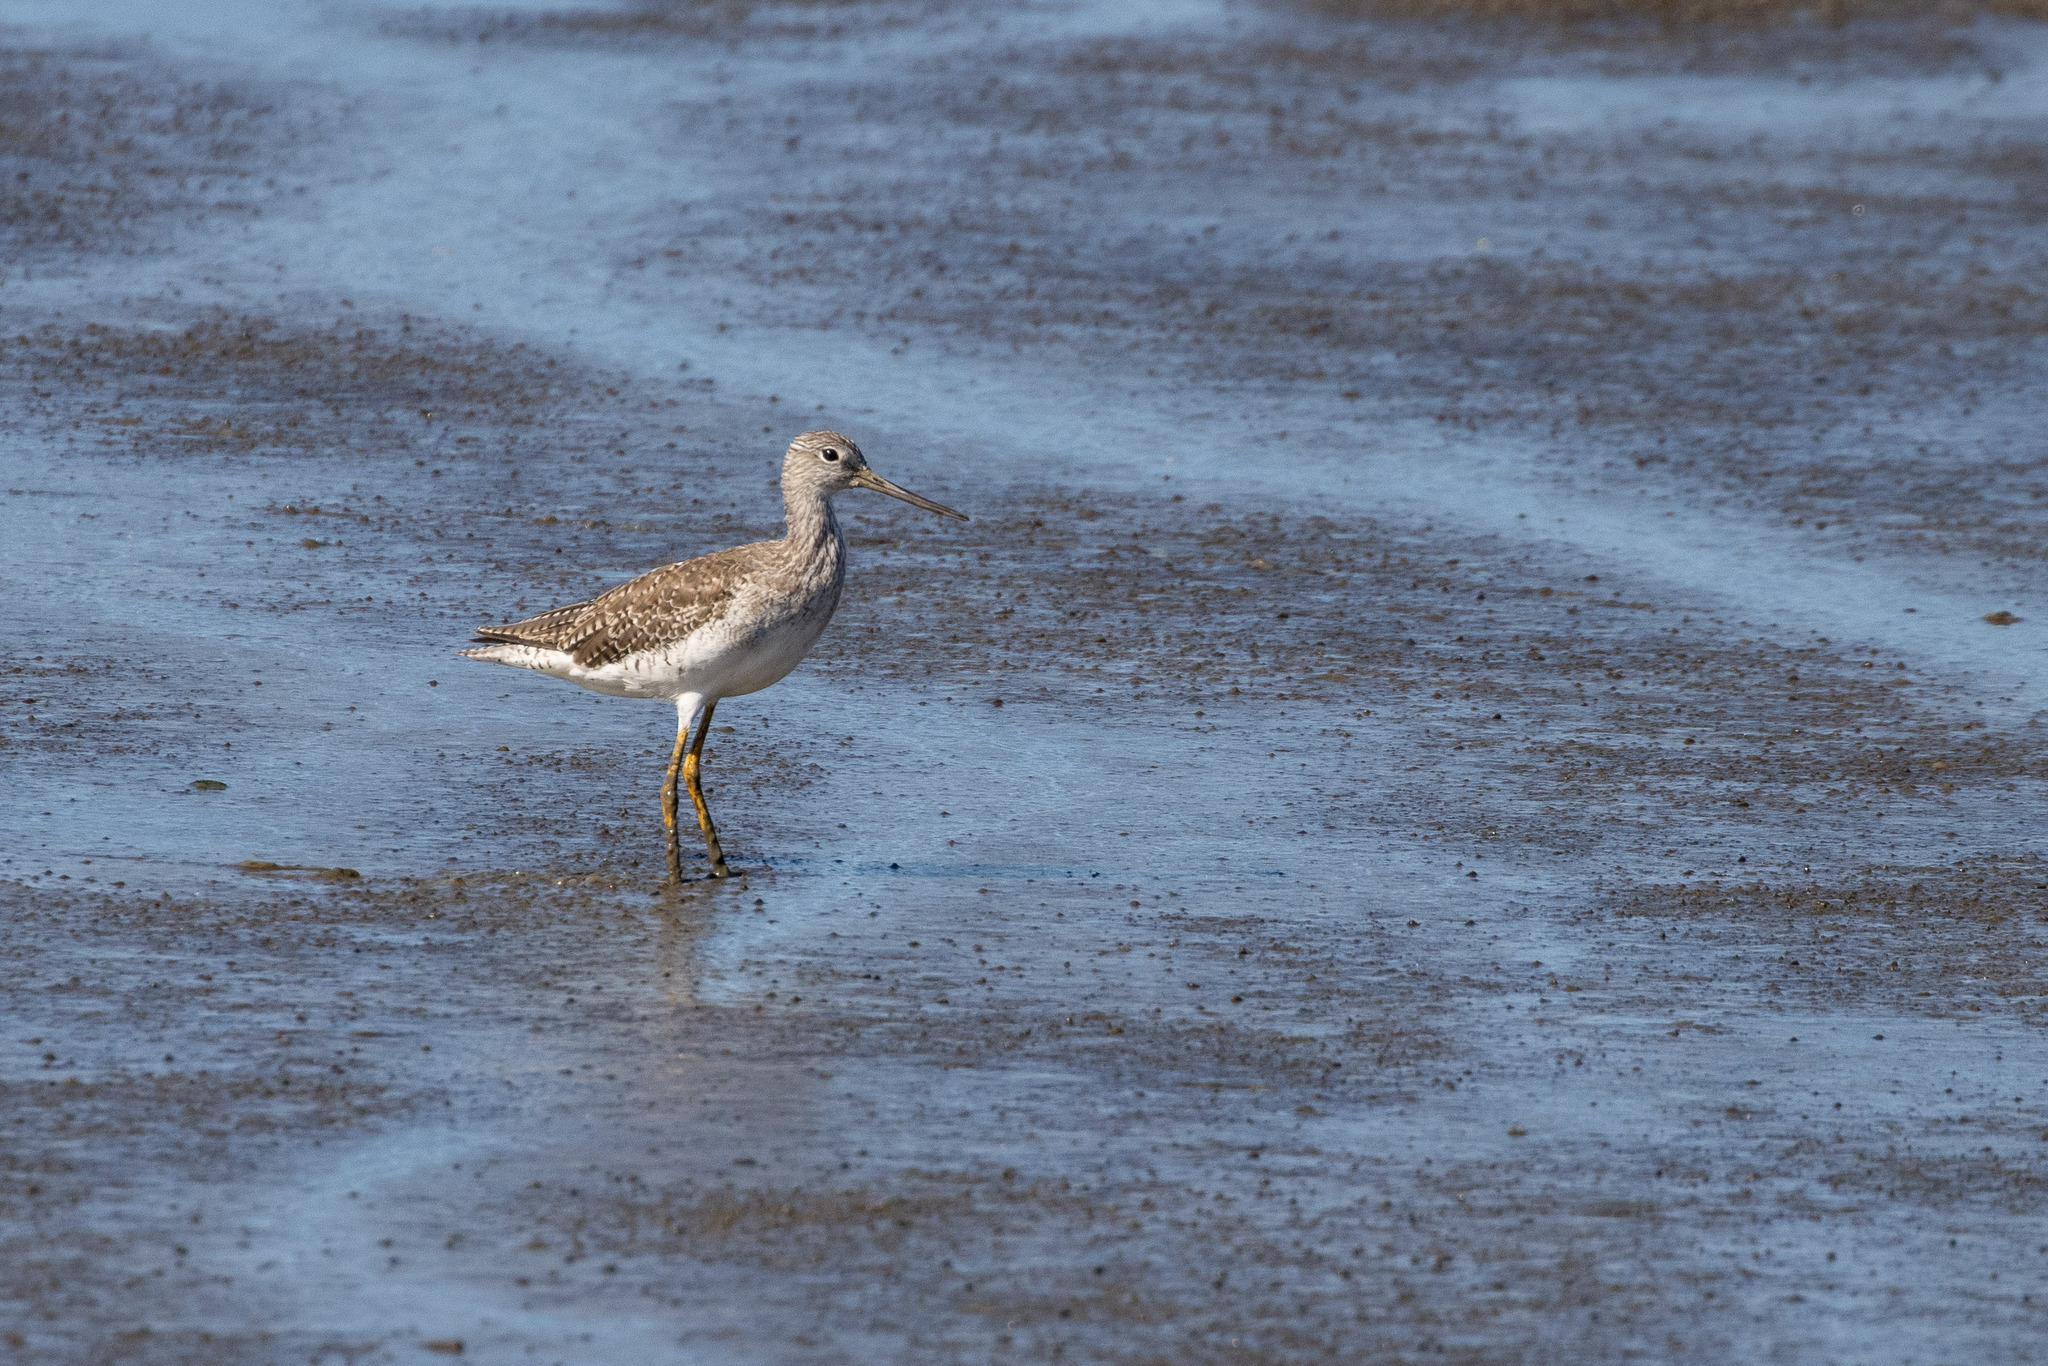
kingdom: Animalia
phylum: Chordata
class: Aves
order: Charadriiformes
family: Scolopacidae
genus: Tringa
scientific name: Tringa melanoleuca
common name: Greater yellowlegs
